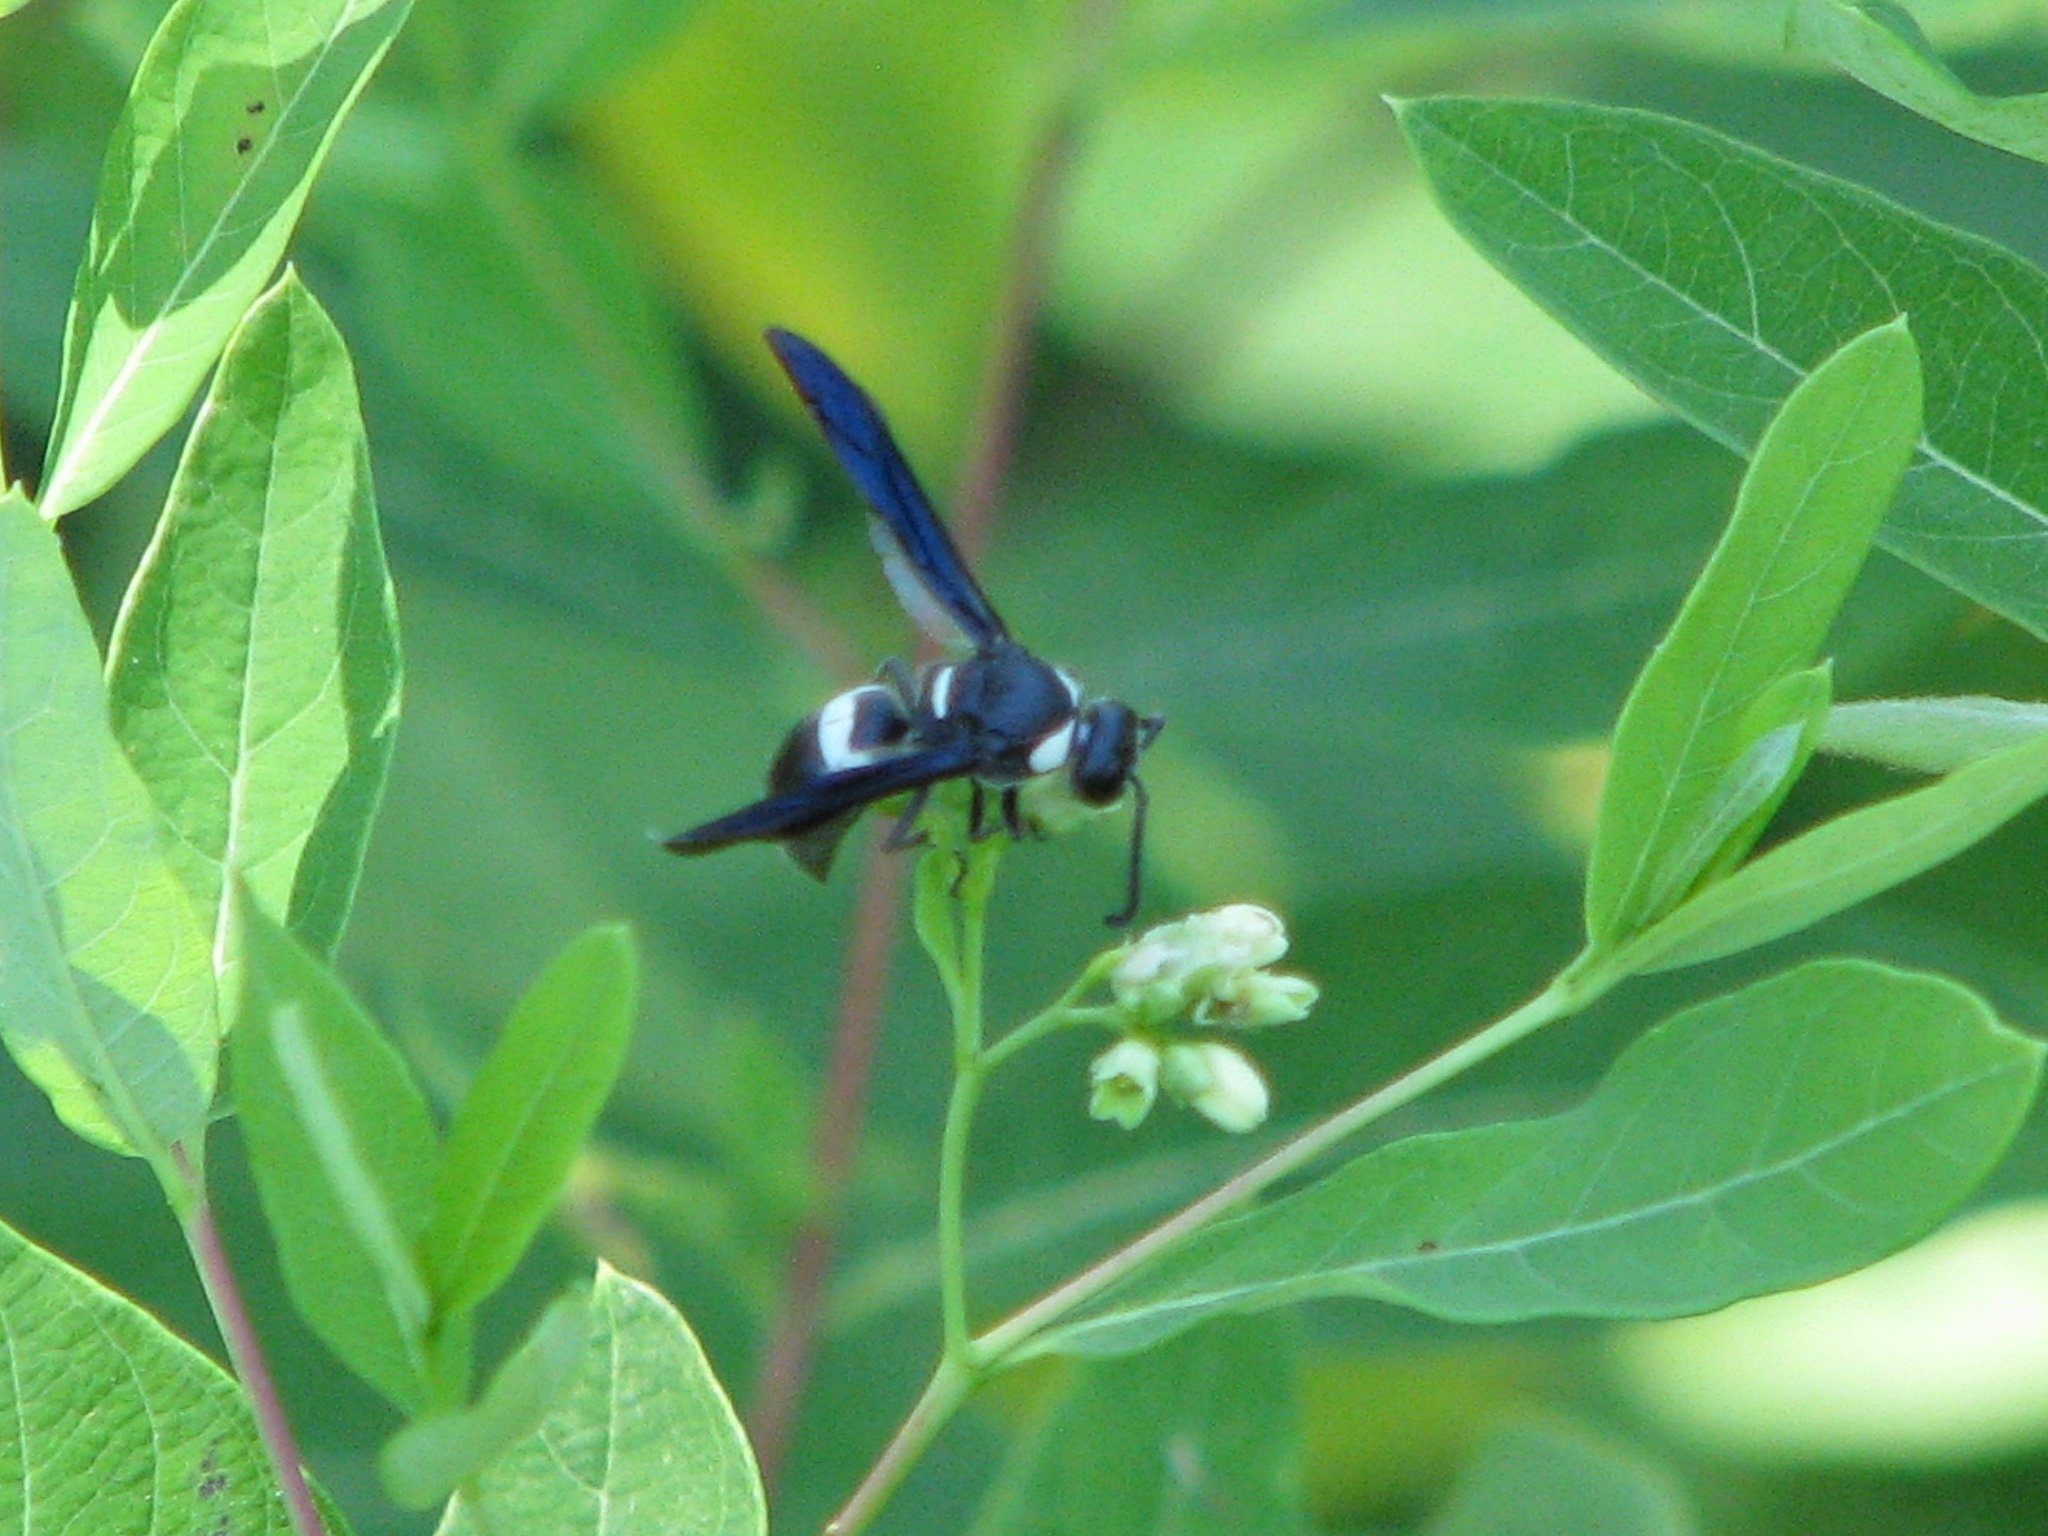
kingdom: Animalia
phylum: Arthropoda
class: Insecta
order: Hymenoptera
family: Eumenidae
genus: Monobia
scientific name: Monobia quadridens
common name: Four-toothed mason wasp
